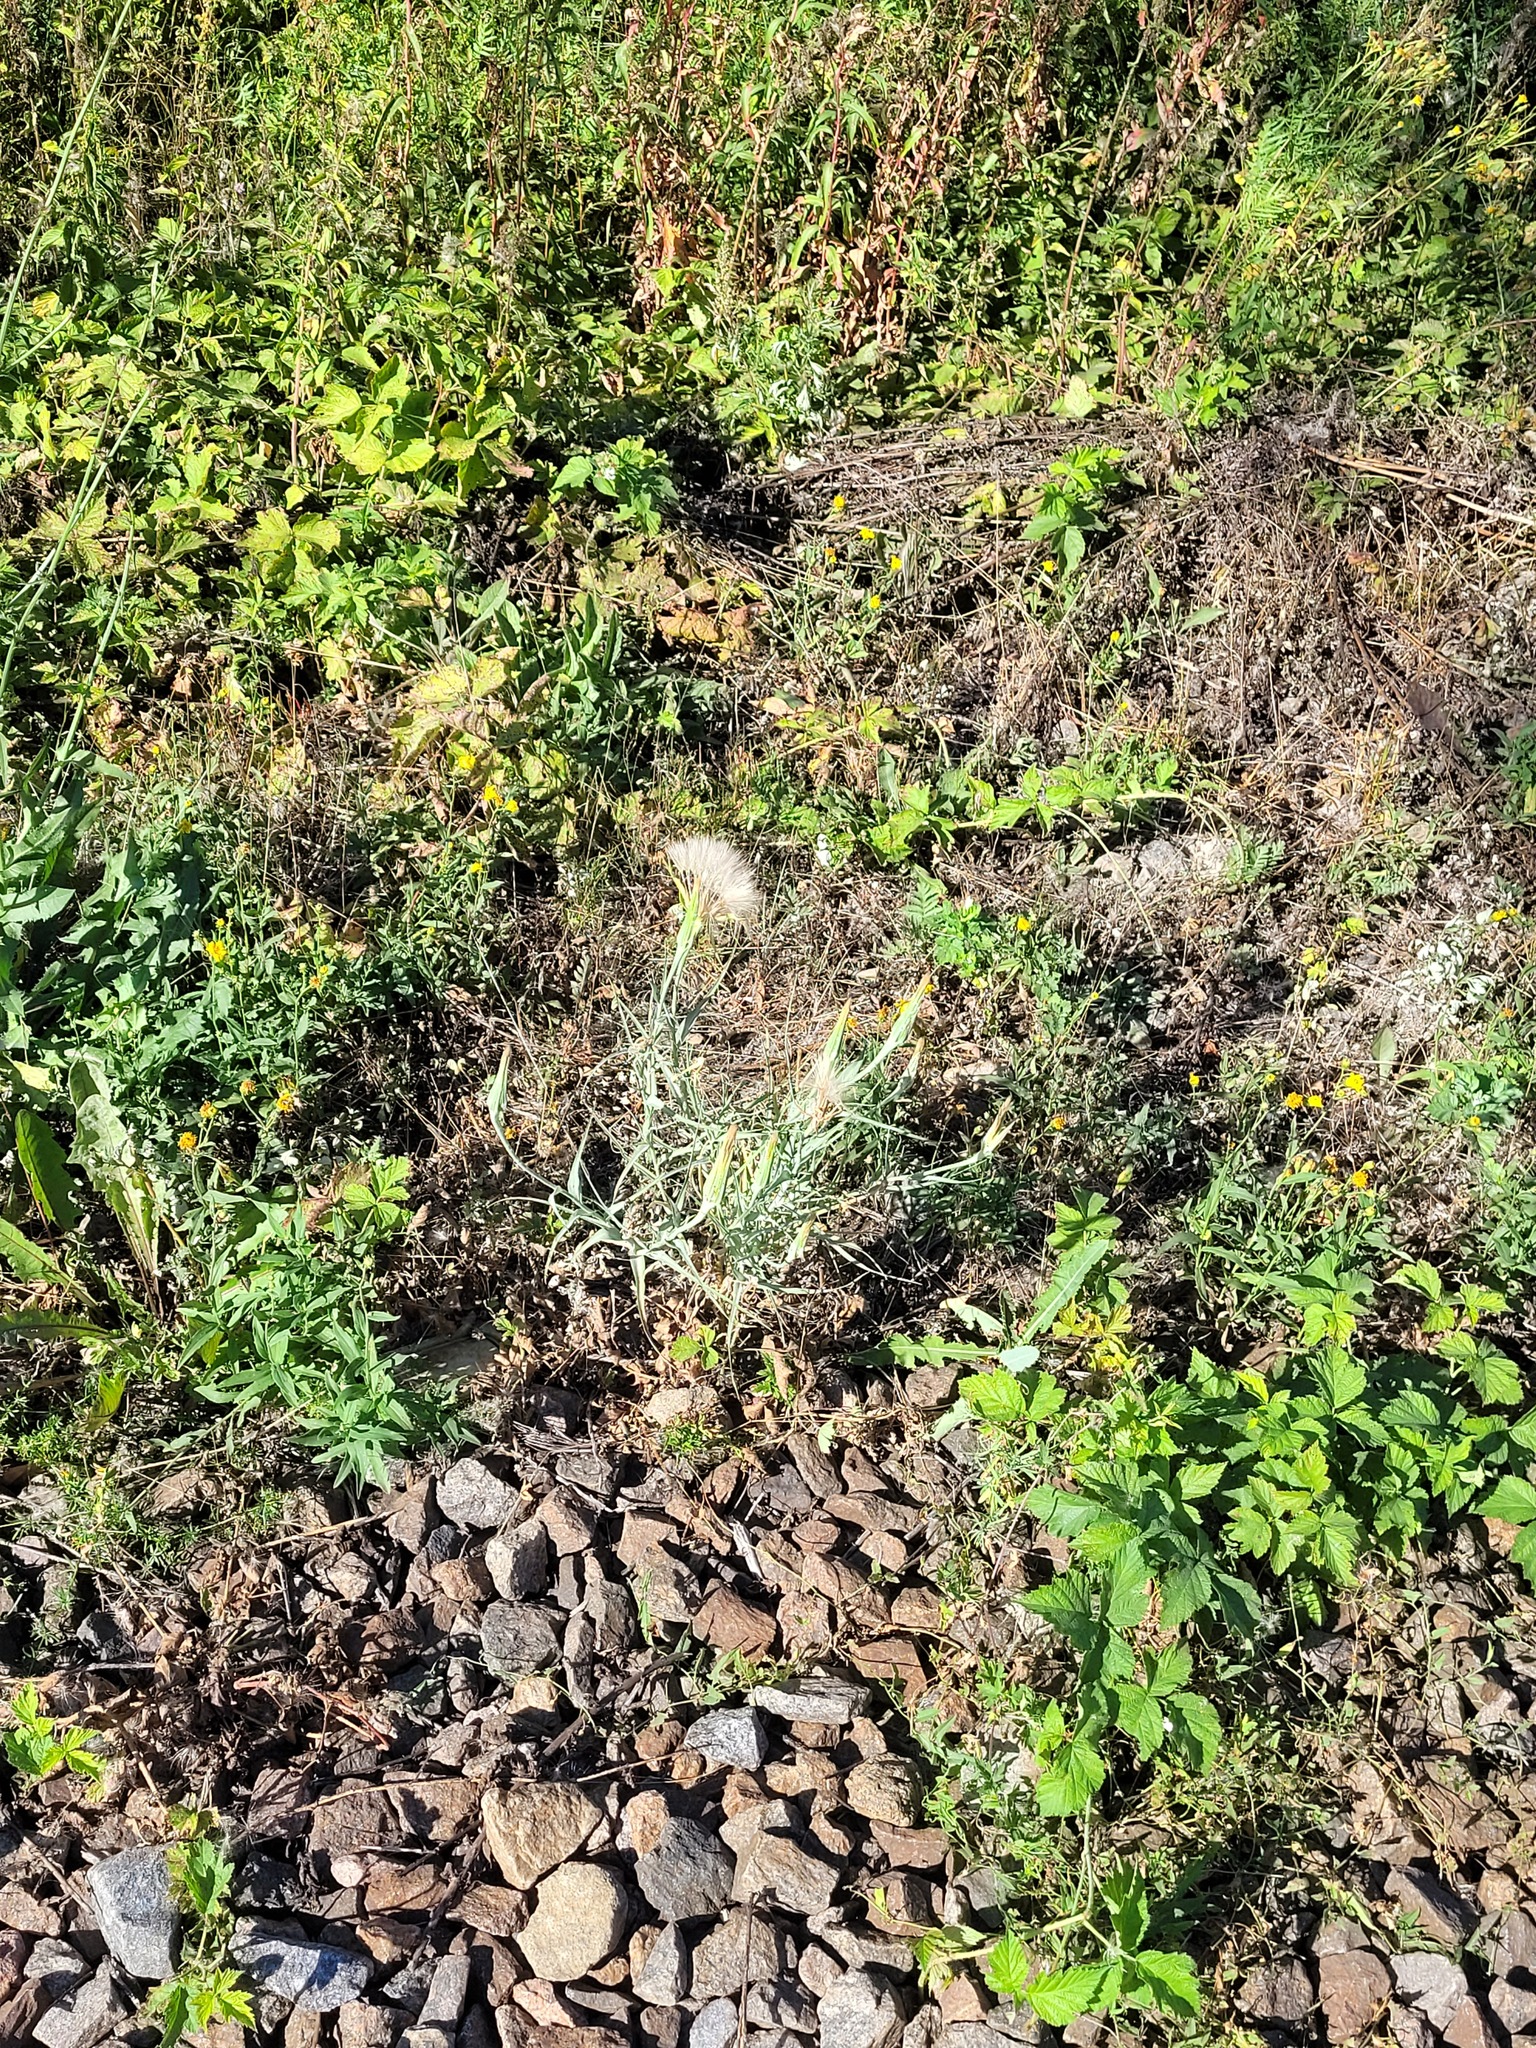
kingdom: Plantae
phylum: Tracheophyta
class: Magnoliopsida
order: Asterales
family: Asteraceae
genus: Tragopogon
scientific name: Tragopogon dubius
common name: Yellow salsify
